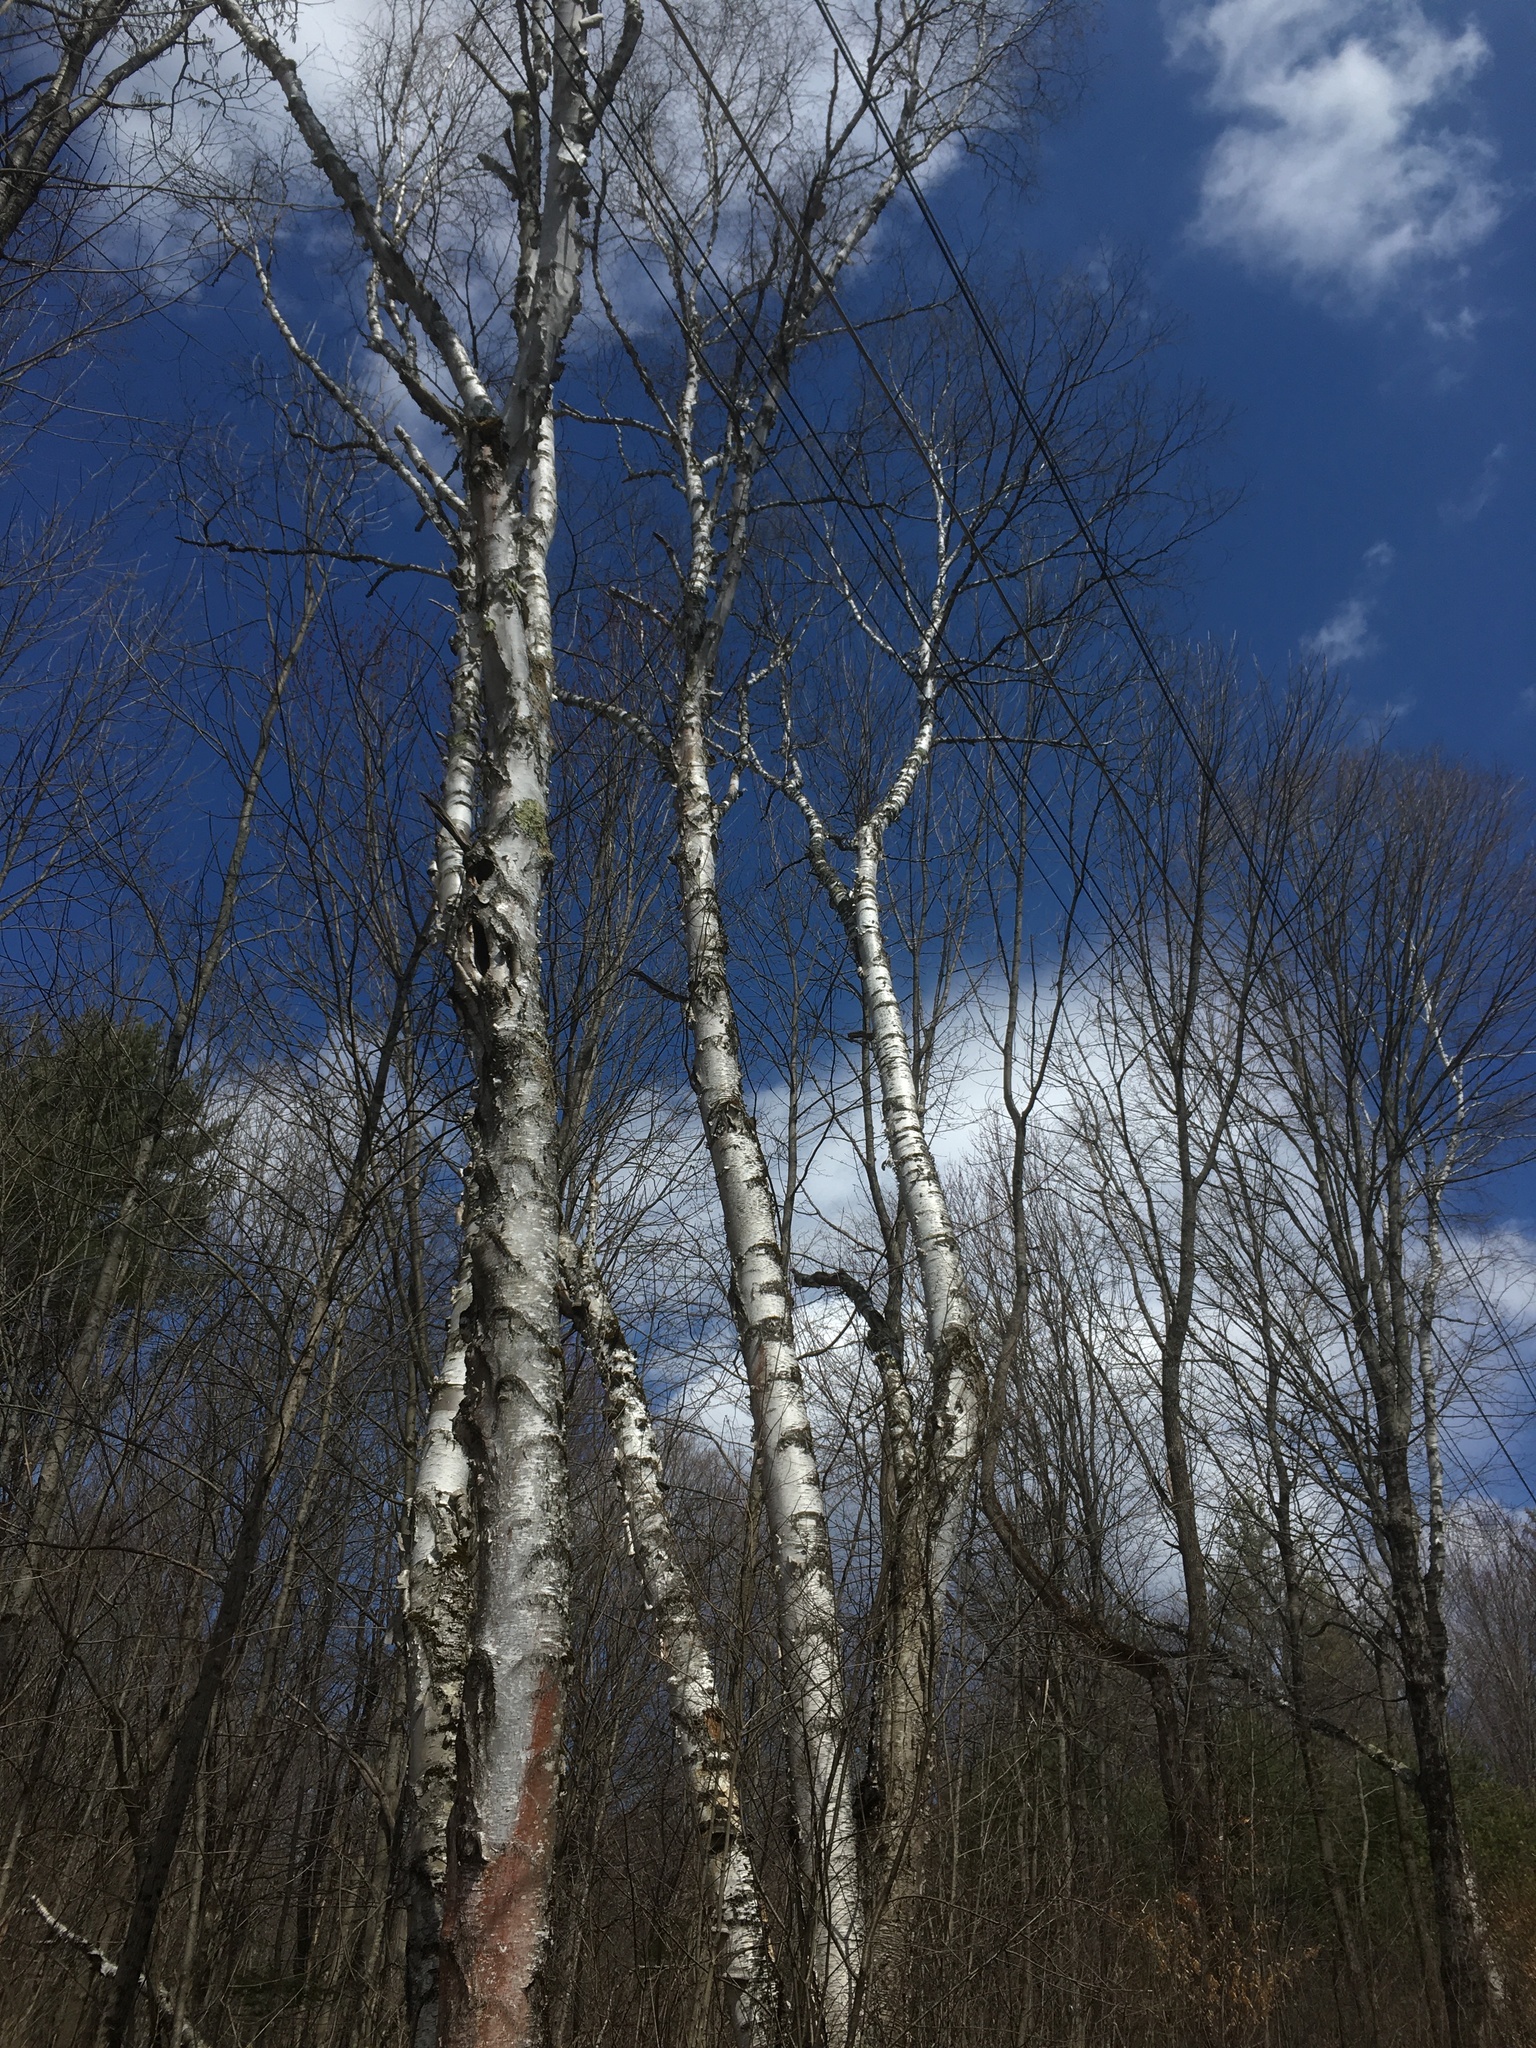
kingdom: Plantae
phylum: Tracheophyta
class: Magnoliopsida
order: Fagales
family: Betulaceae
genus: Betula
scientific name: Betula papyrifera
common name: Paper birch
